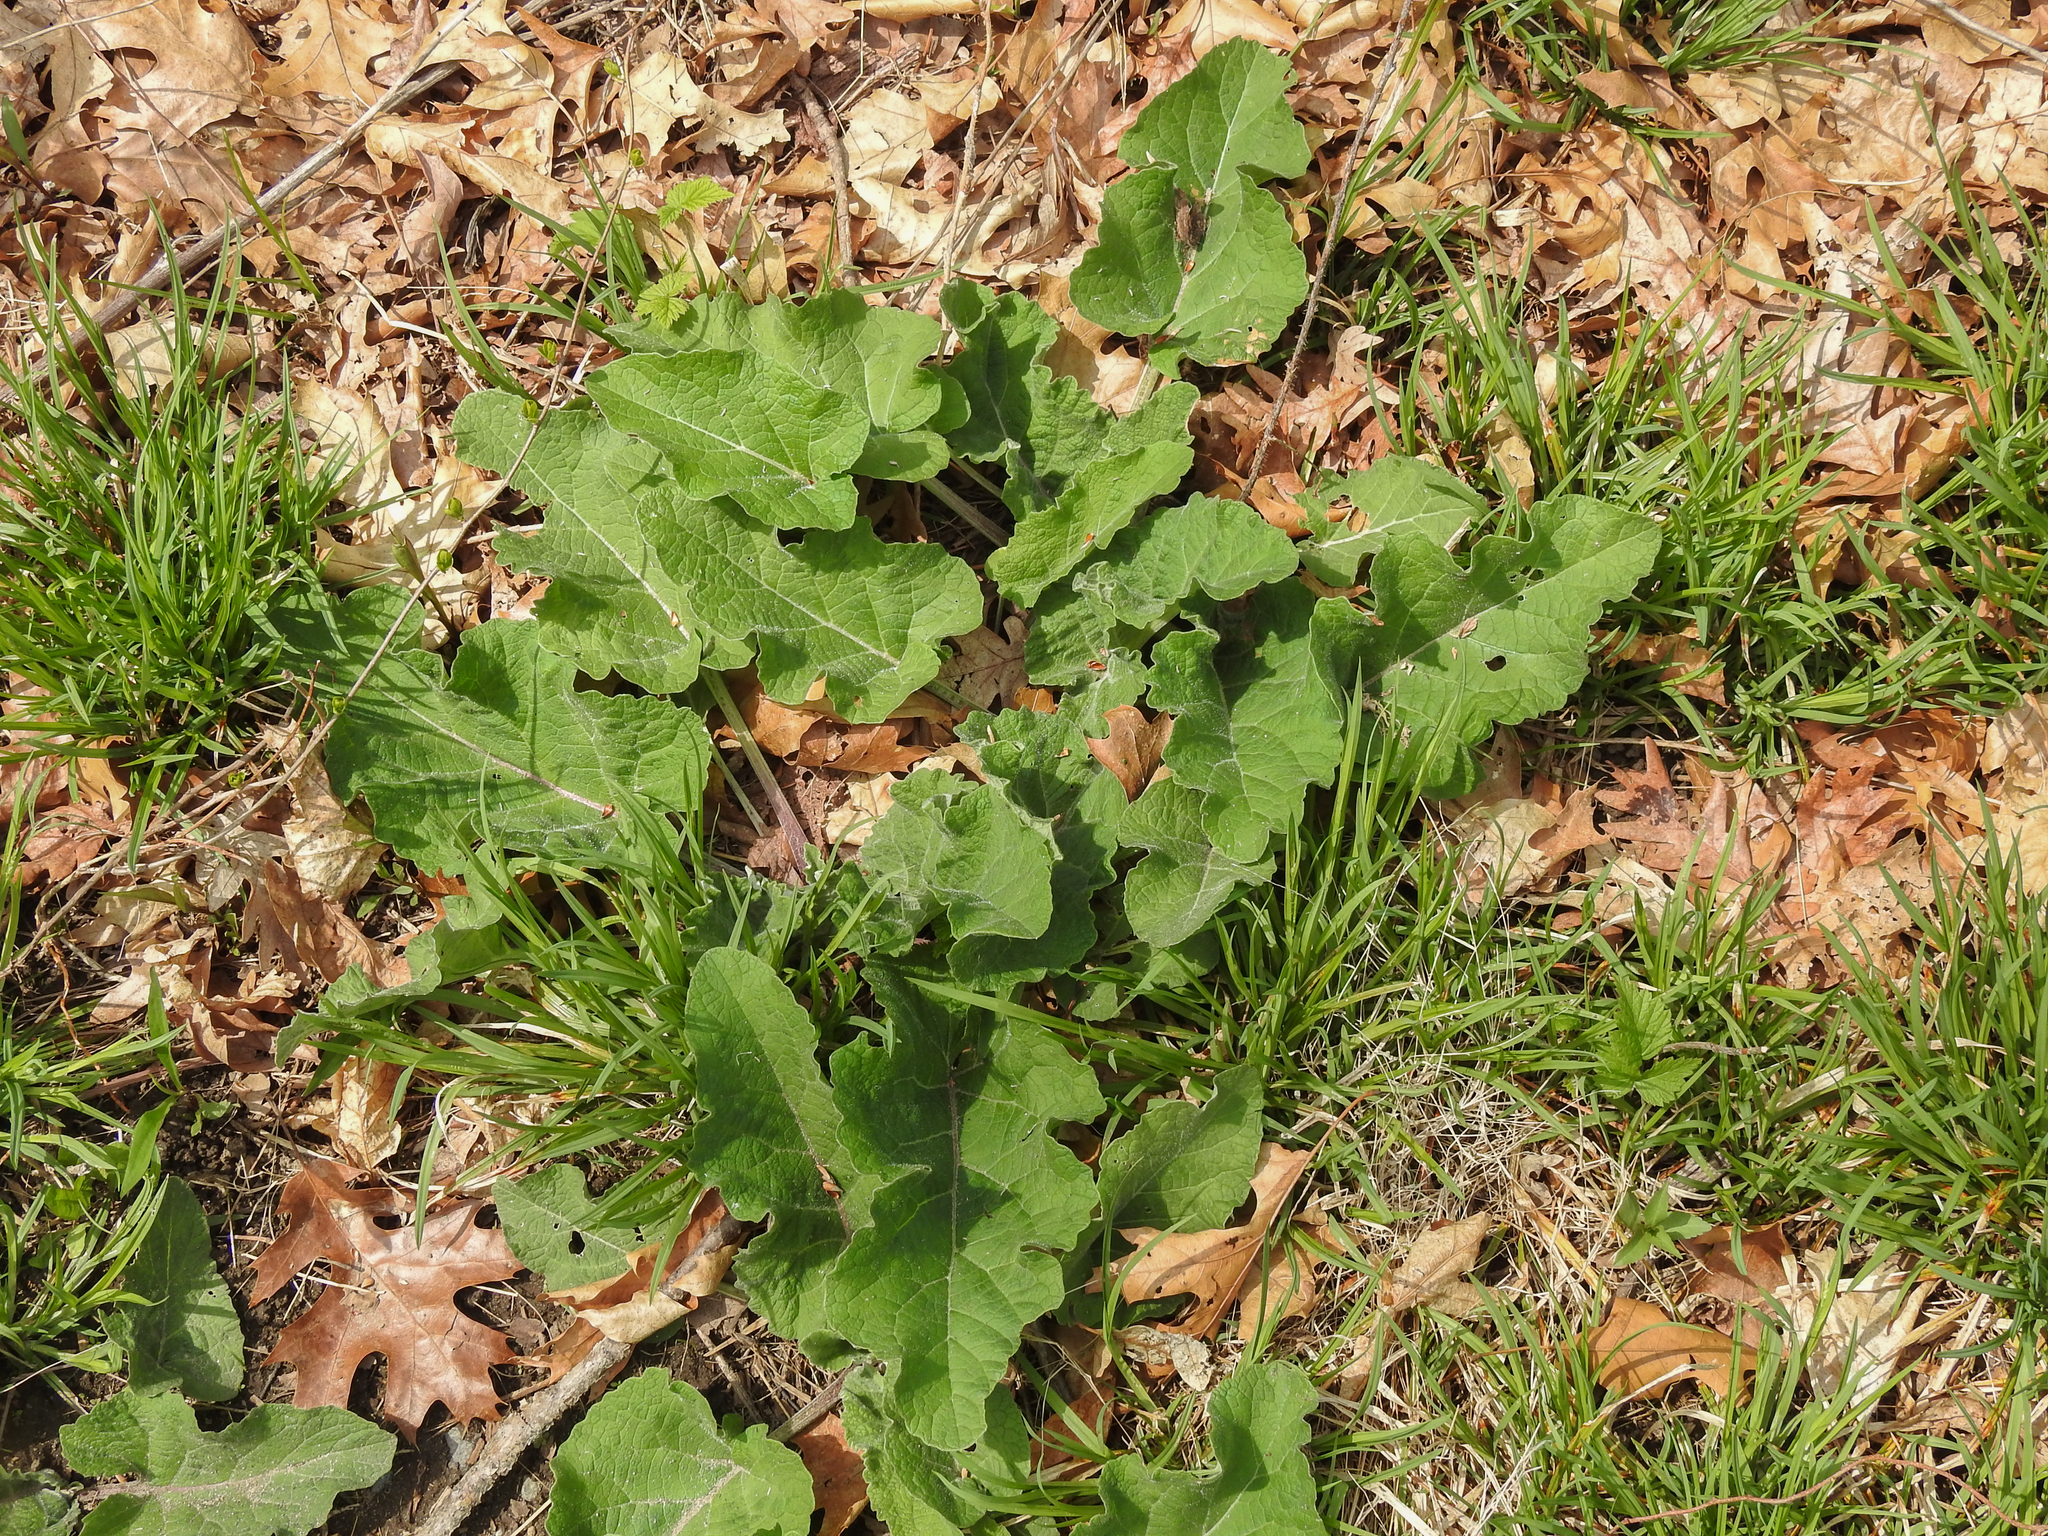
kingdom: Plantae
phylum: Tracheophyta
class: Magnoliopsida
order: Asterales
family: Asteraceae
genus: Arctium
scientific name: Arctium
